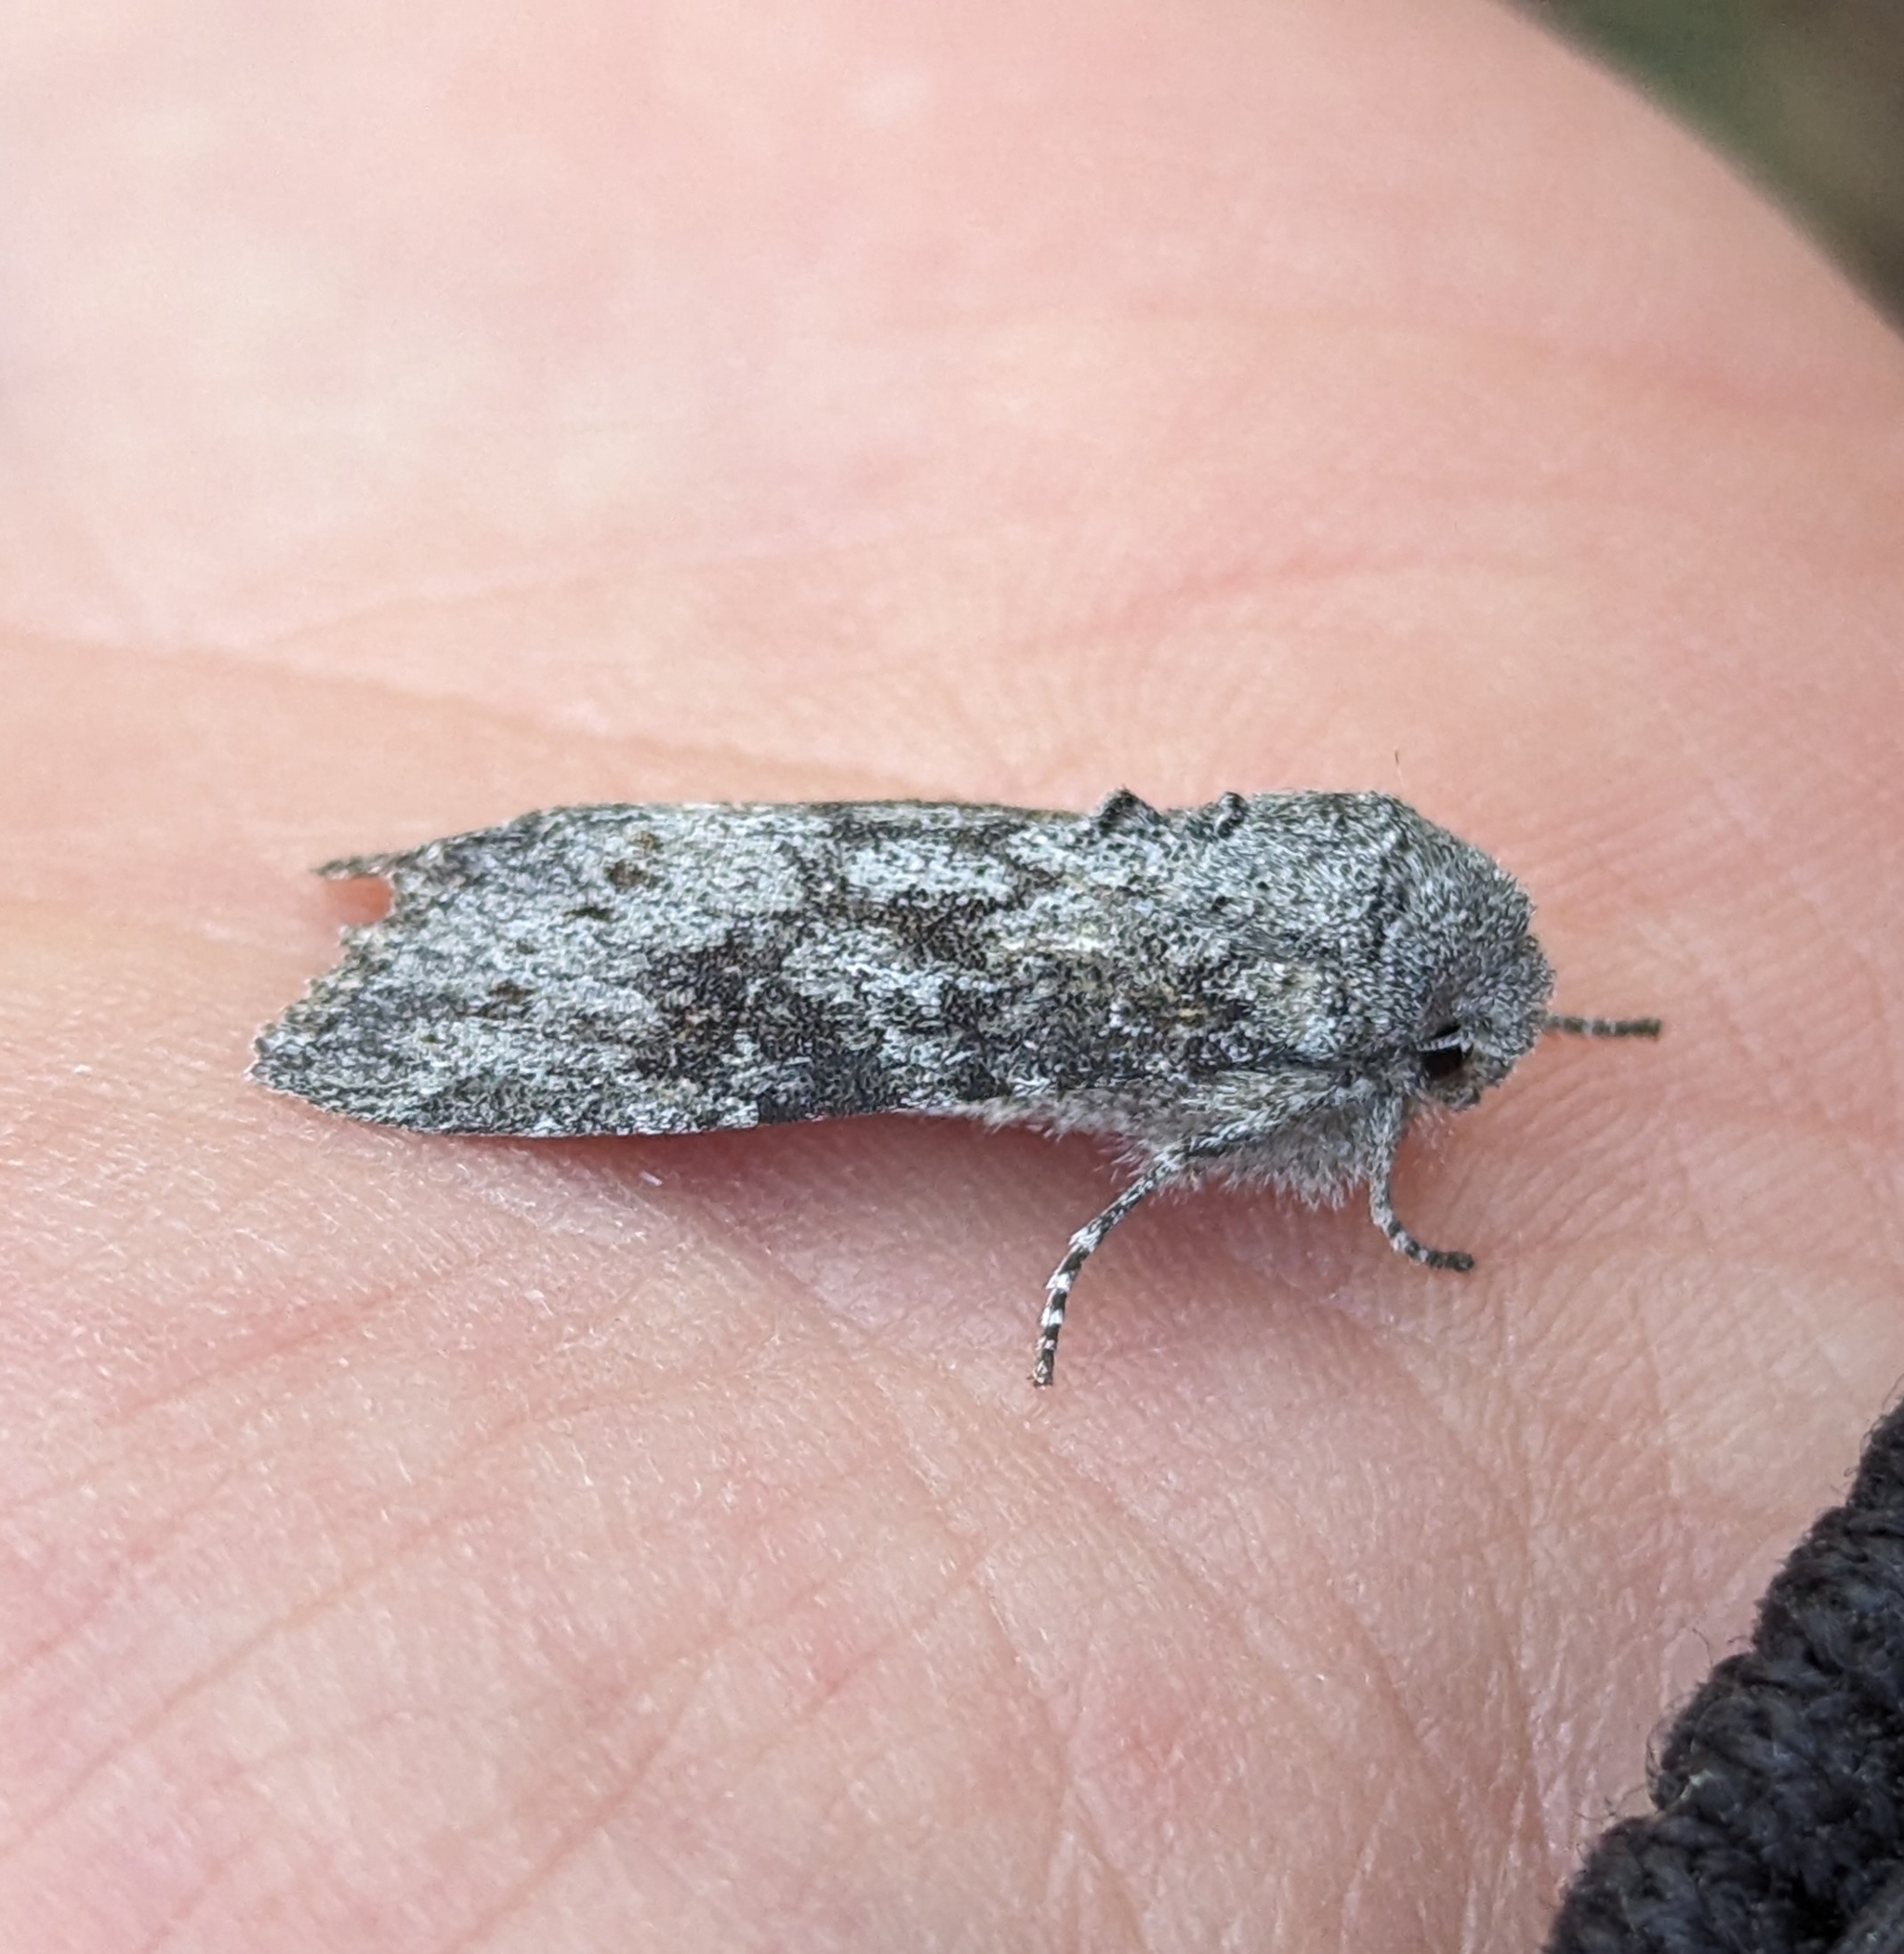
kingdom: Animalia
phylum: Arthropoda
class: Insecta
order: Lepidoptera
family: Noctuidae
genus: Egira
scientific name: Egira curialis
